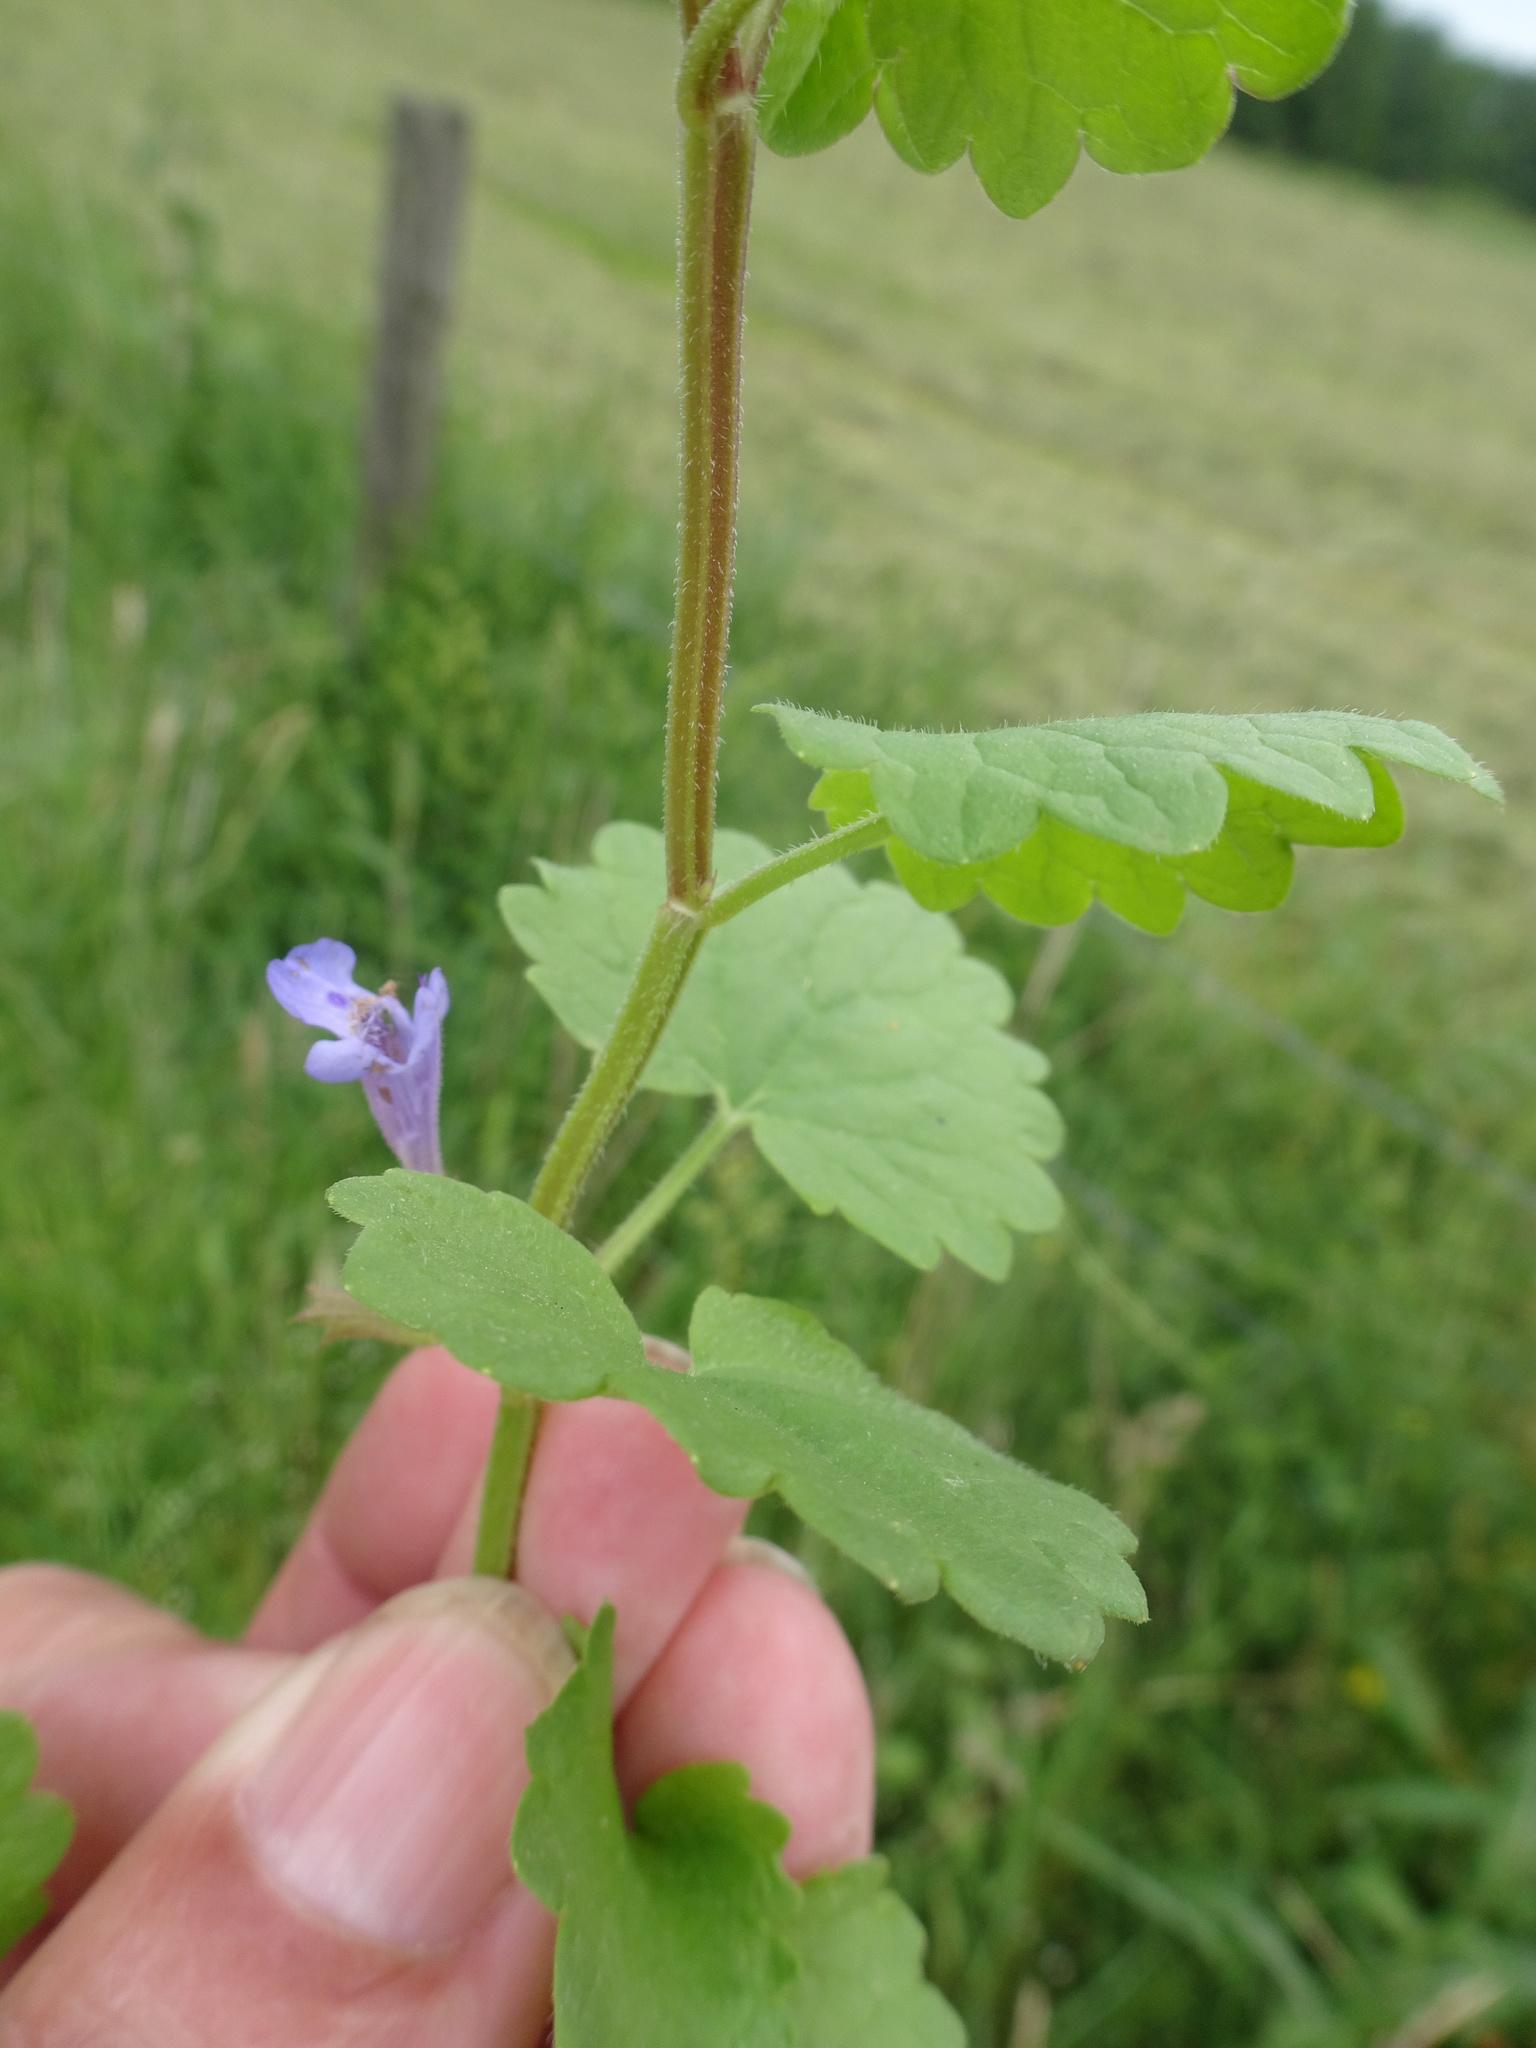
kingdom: Plantae
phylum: Tracheophyta
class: Magnoliopsida
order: Lamiales
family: Lamiaceae
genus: Glechoma
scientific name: Glechoma hederacea
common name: Ground ivy
